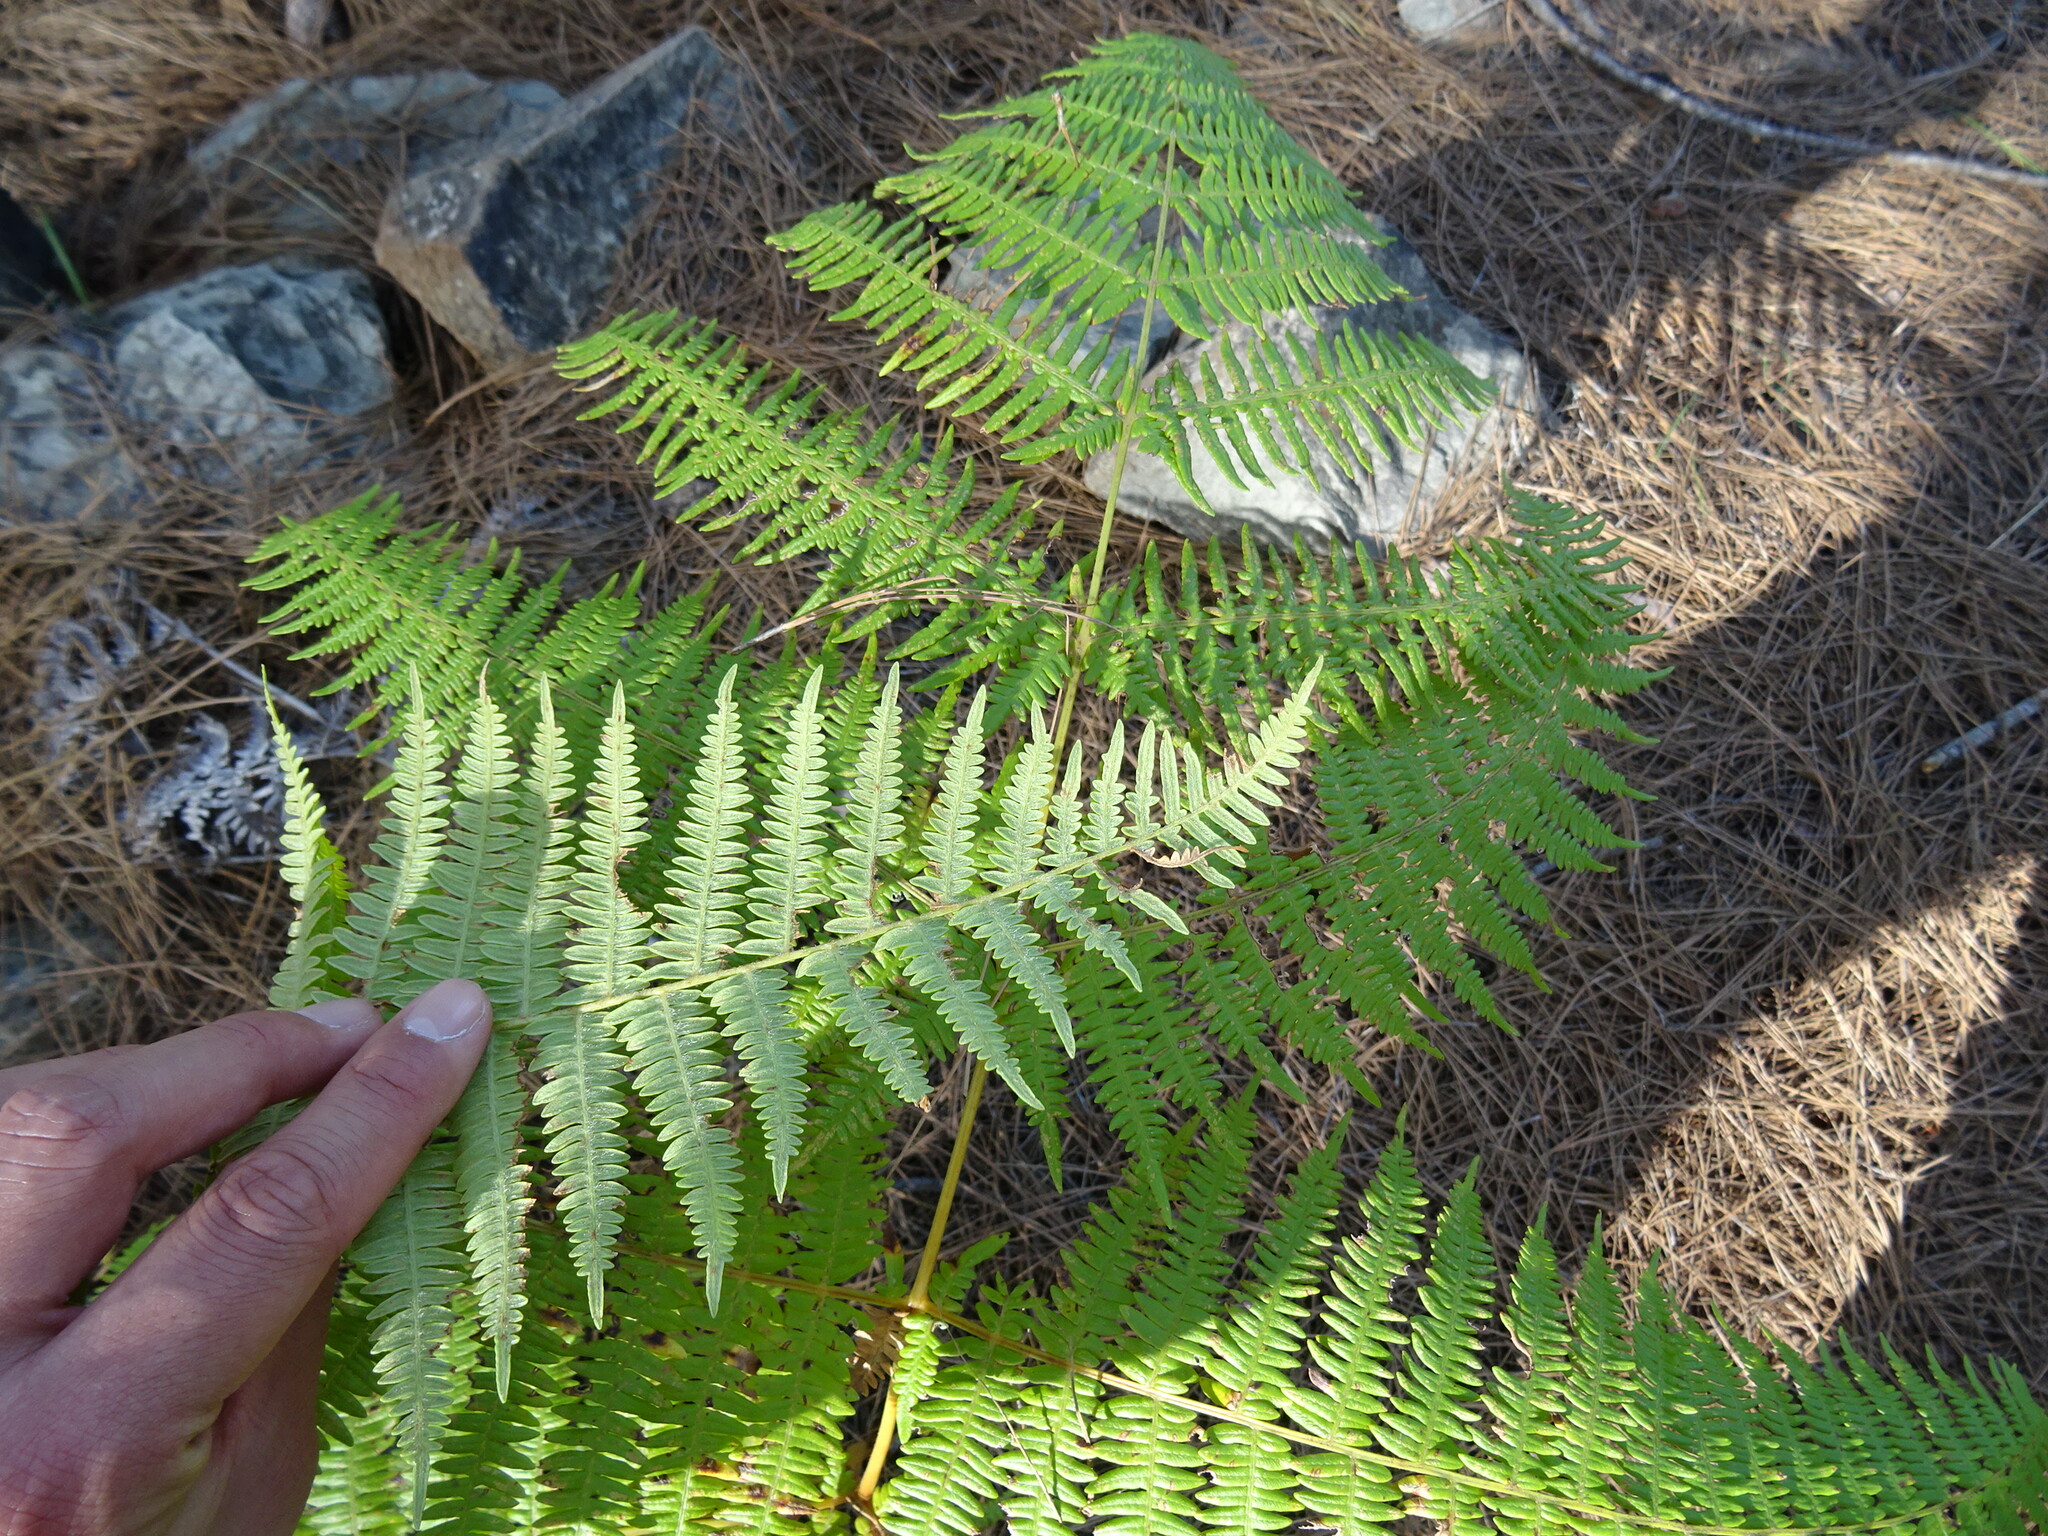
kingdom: Plantae
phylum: Tracheophyta
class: Polypodiopsida
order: Polypodiales
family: Dennstaedtiaceae
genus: Pteridium
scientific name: Pteridium aquilinum
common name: Bracken
